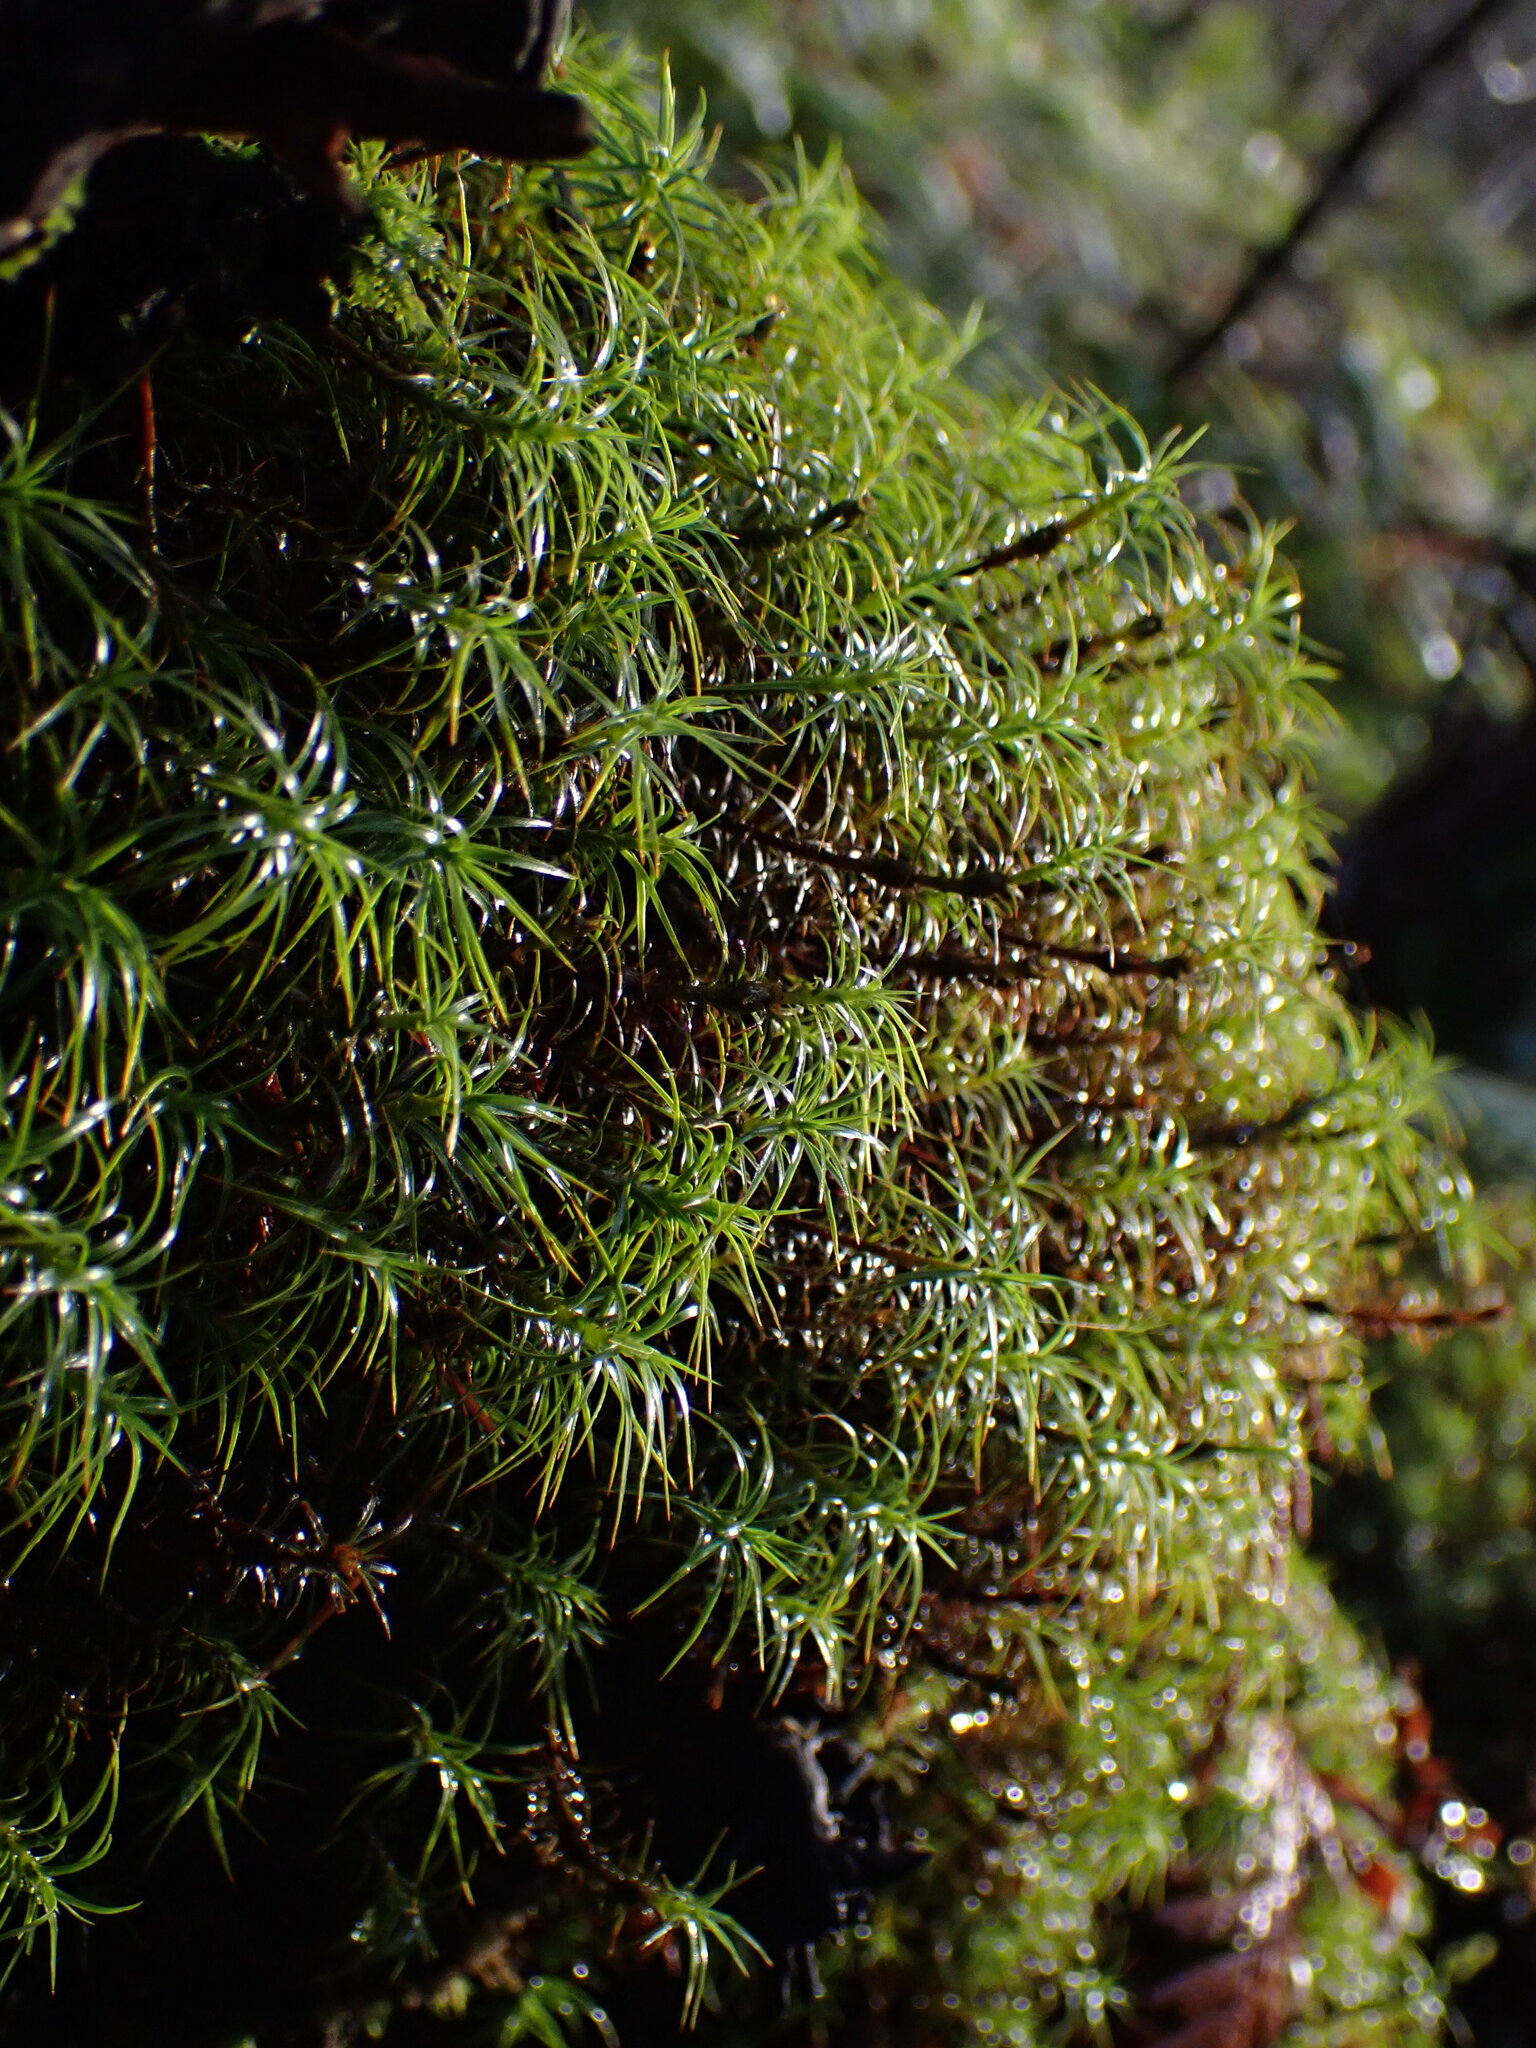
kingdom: Plantae
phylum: Bryophyta
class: Polytrichopsida
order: Polytrichales
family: Polytrichaceae
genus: Polytrichastrum
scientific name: Polytrichastrum alpinum
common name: Alpine haircap
